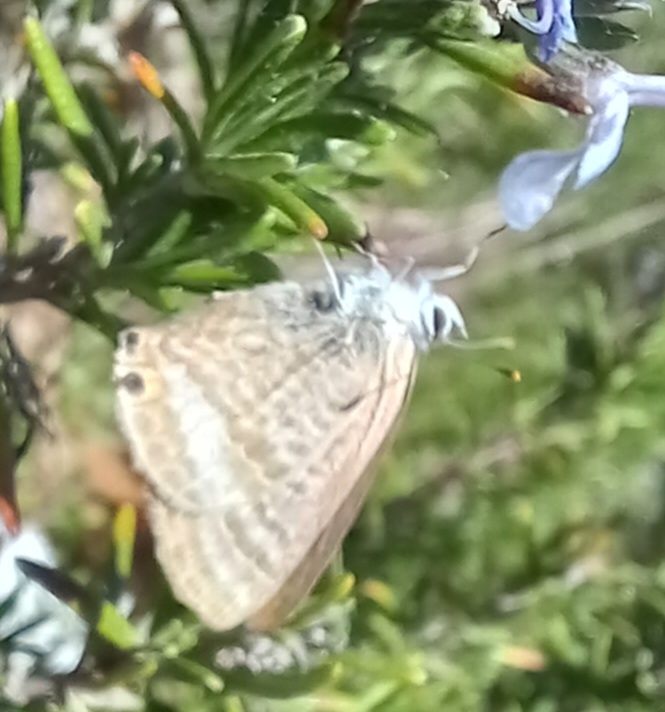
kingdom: Animalia
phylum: Arthropoda
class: Insecta
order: Lepidoptera
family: Lycaenidae
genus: Lampides
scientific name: Lampides boeticus
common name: Long-tailed blue
